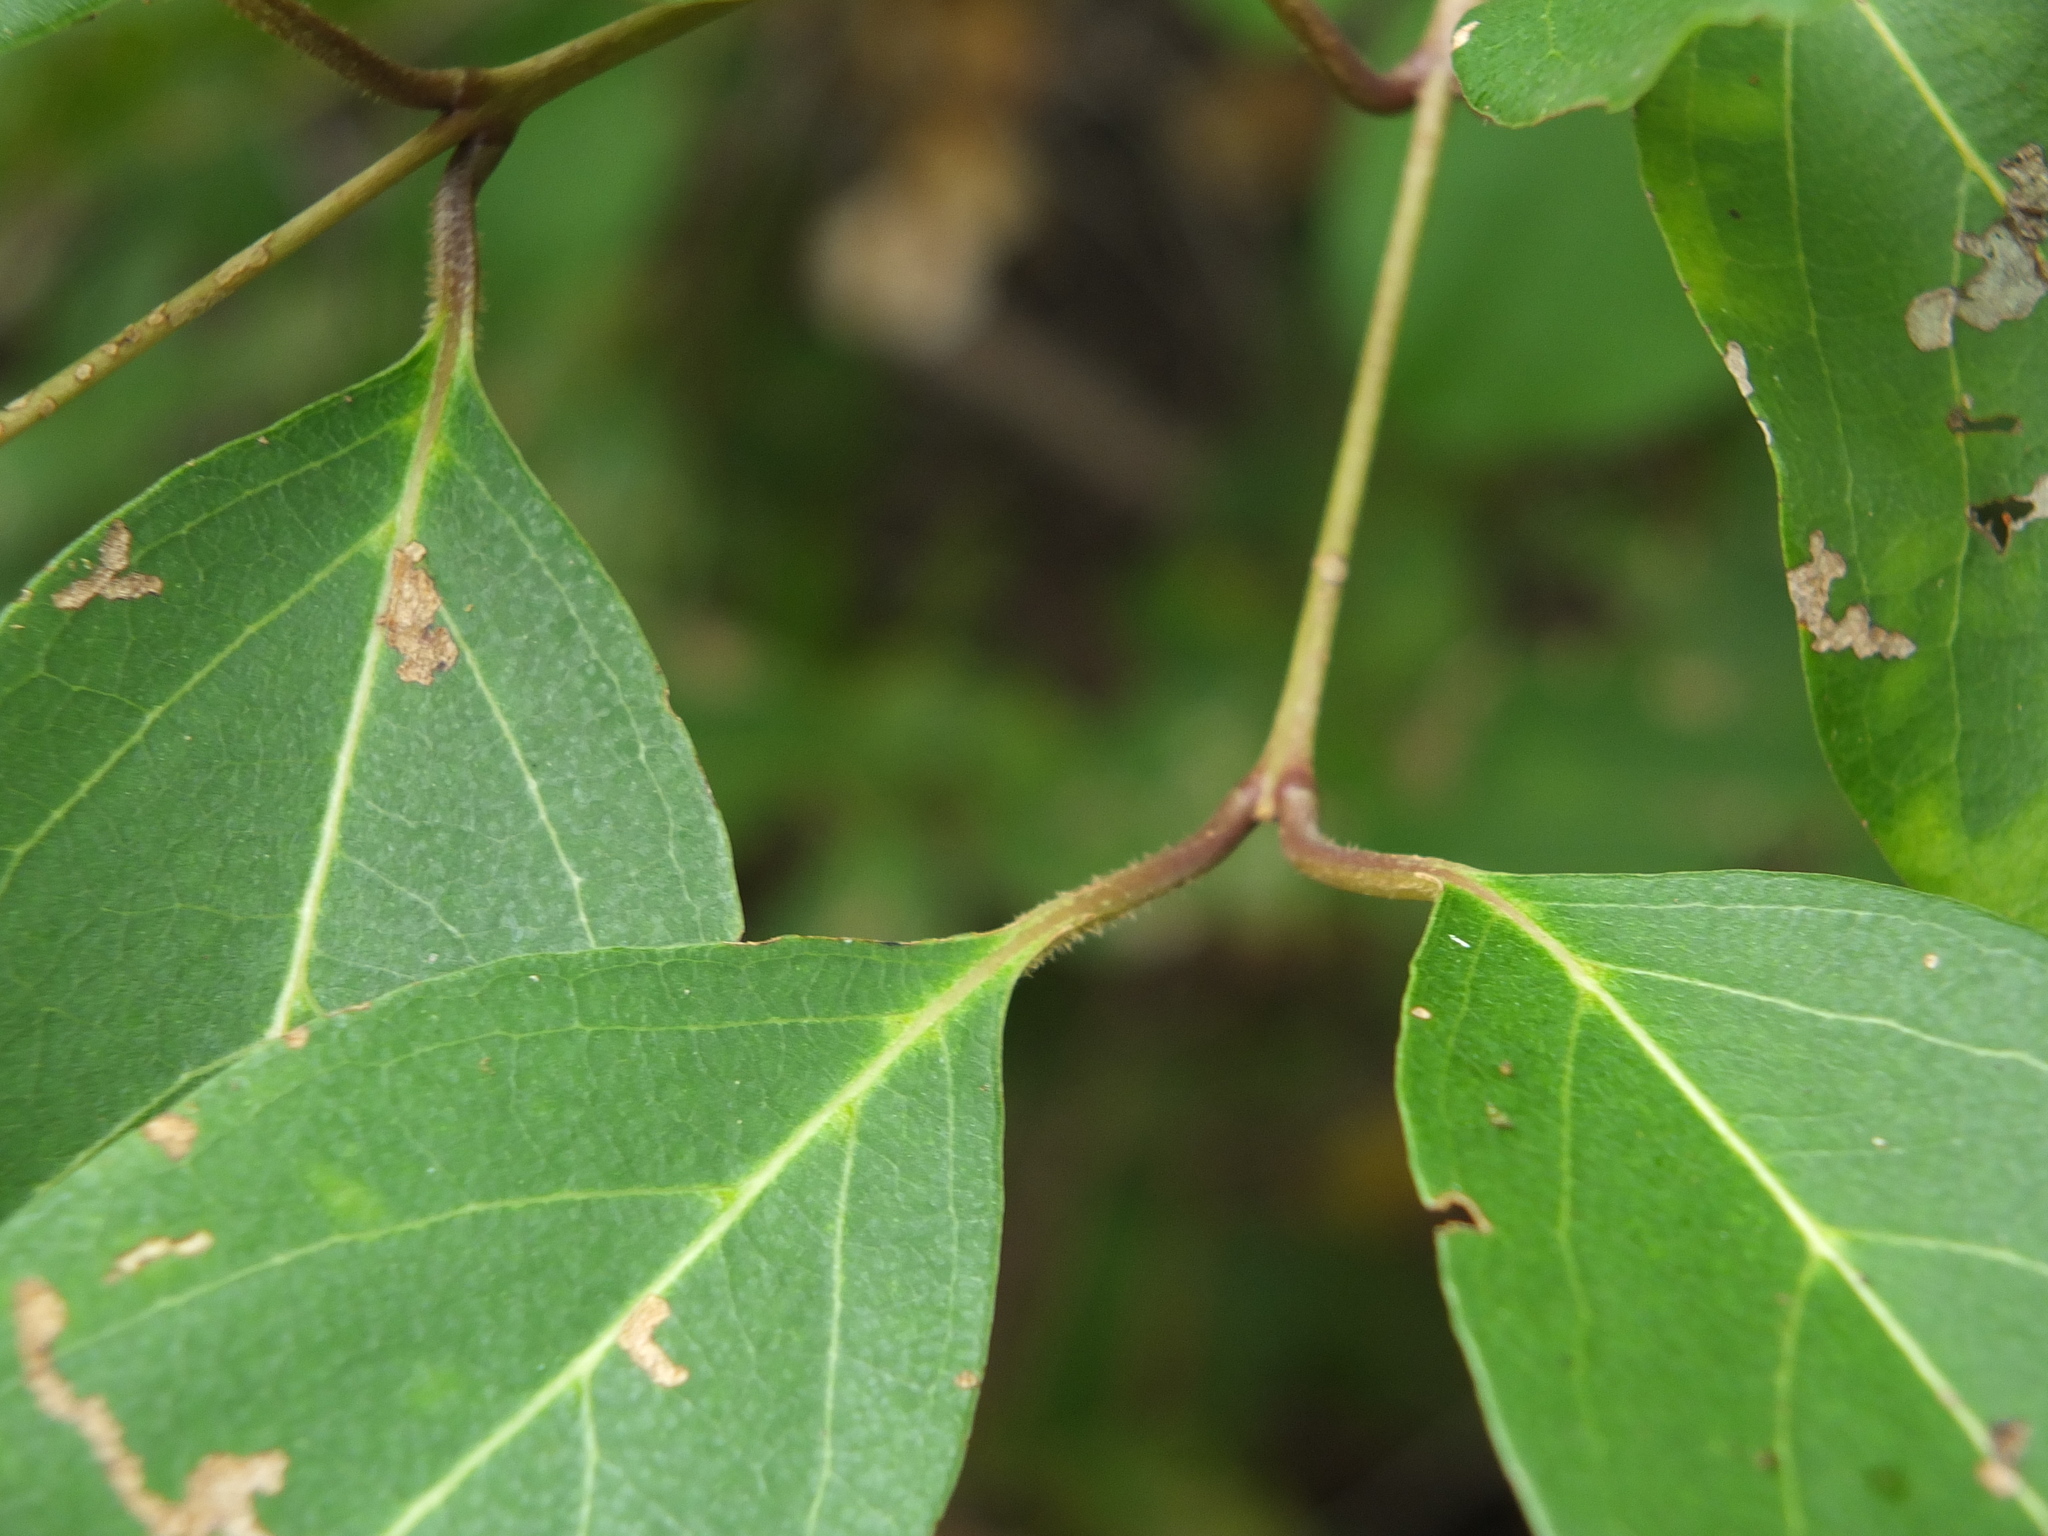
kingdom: Plantae
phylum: Tracheophyta
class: Magnoliopsida
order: Myrtales
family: Combretaceae
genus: Combretum
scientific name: Combretum albidum
